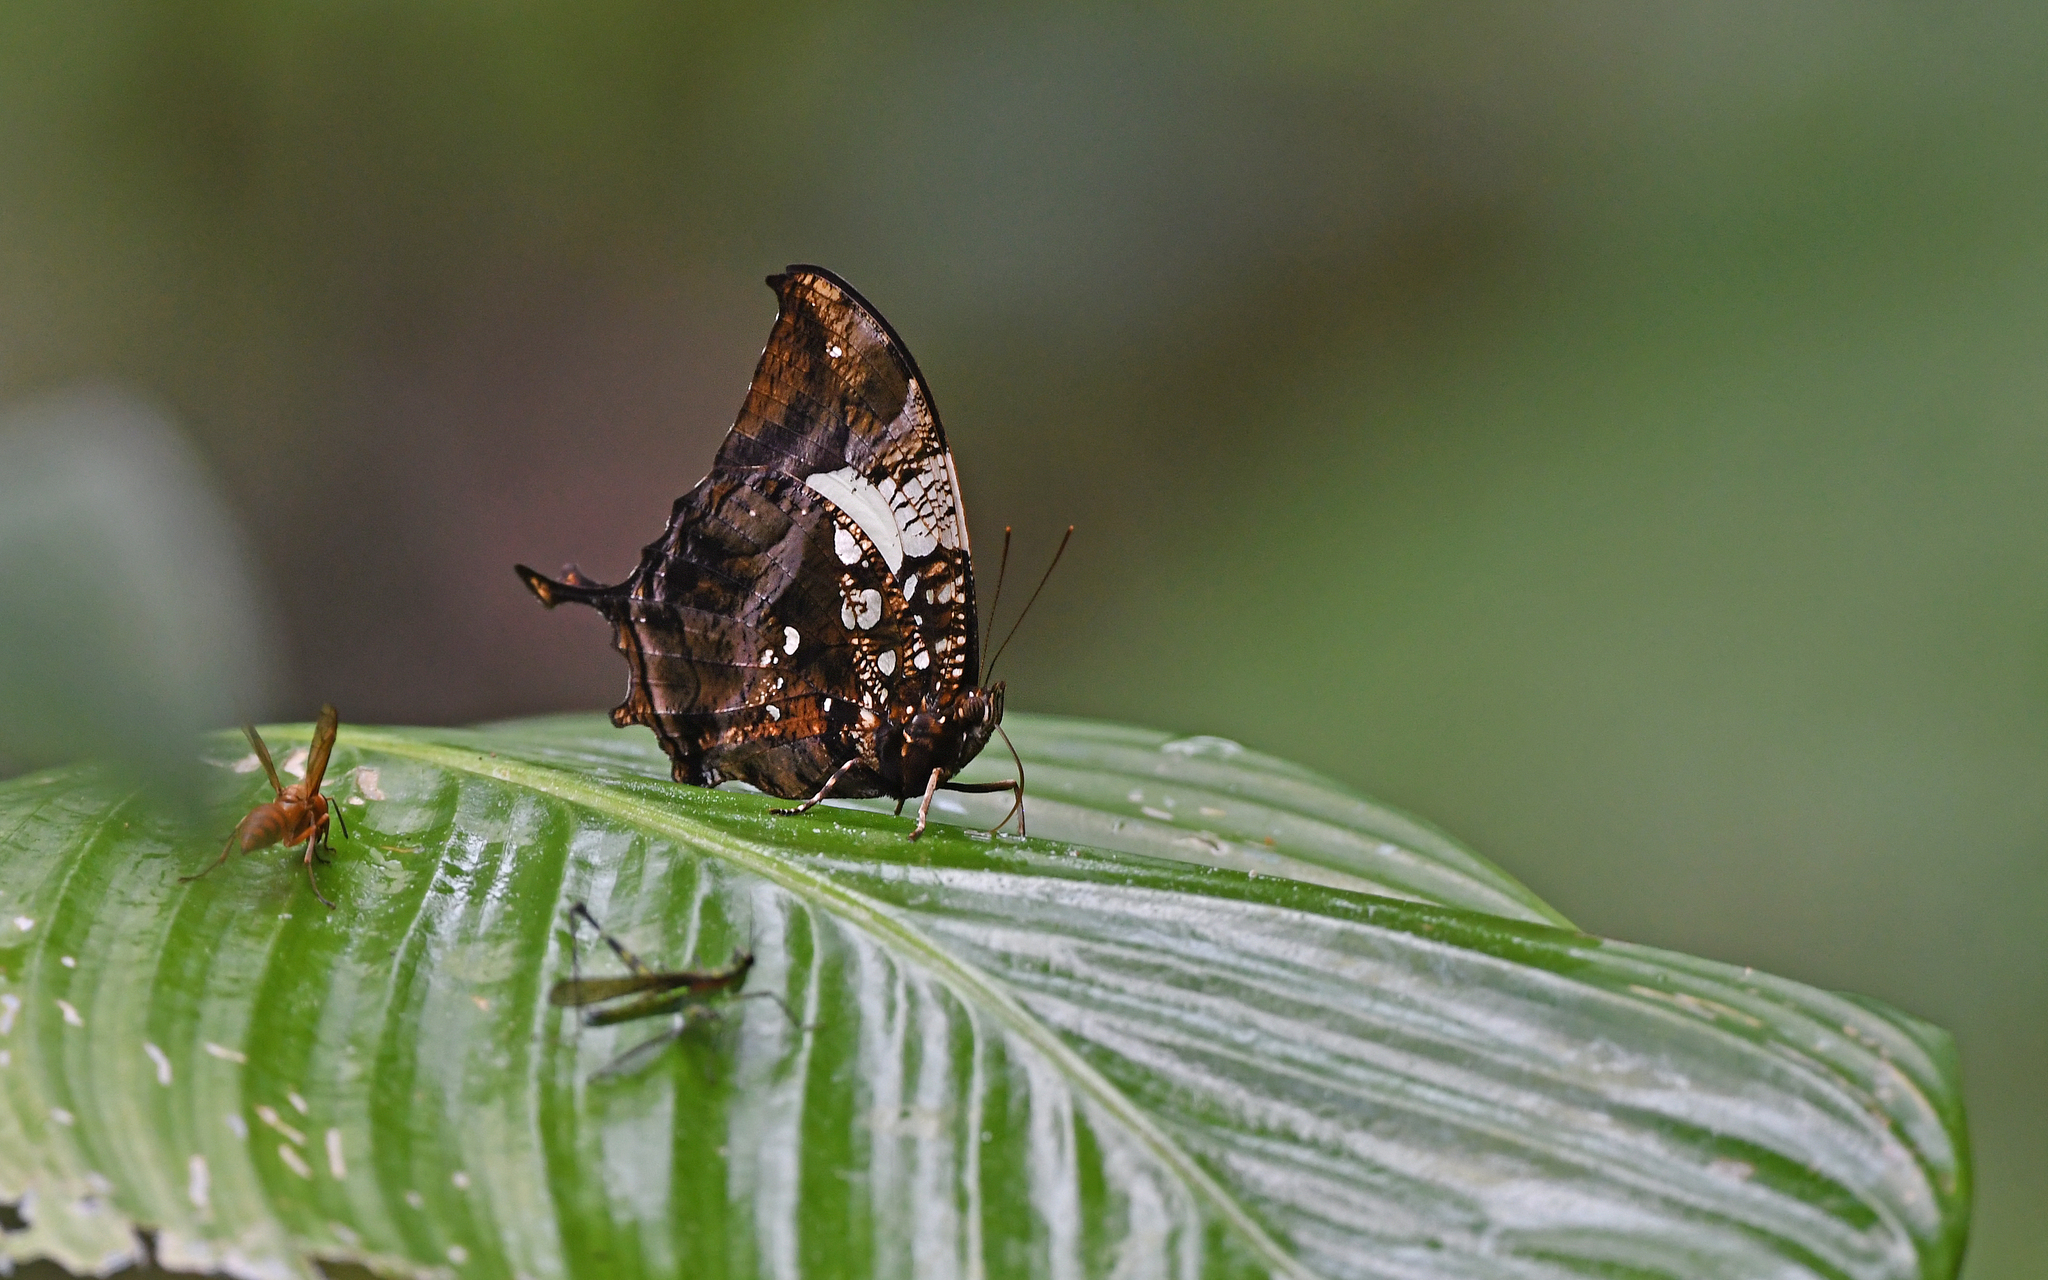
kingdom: Animalia
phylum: Arthropoda
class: Insecta
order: Lepidoptera
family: Nymphalidae
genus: Hypna
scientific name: Hypna clytemnestra
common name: Silver-studded leafwing
